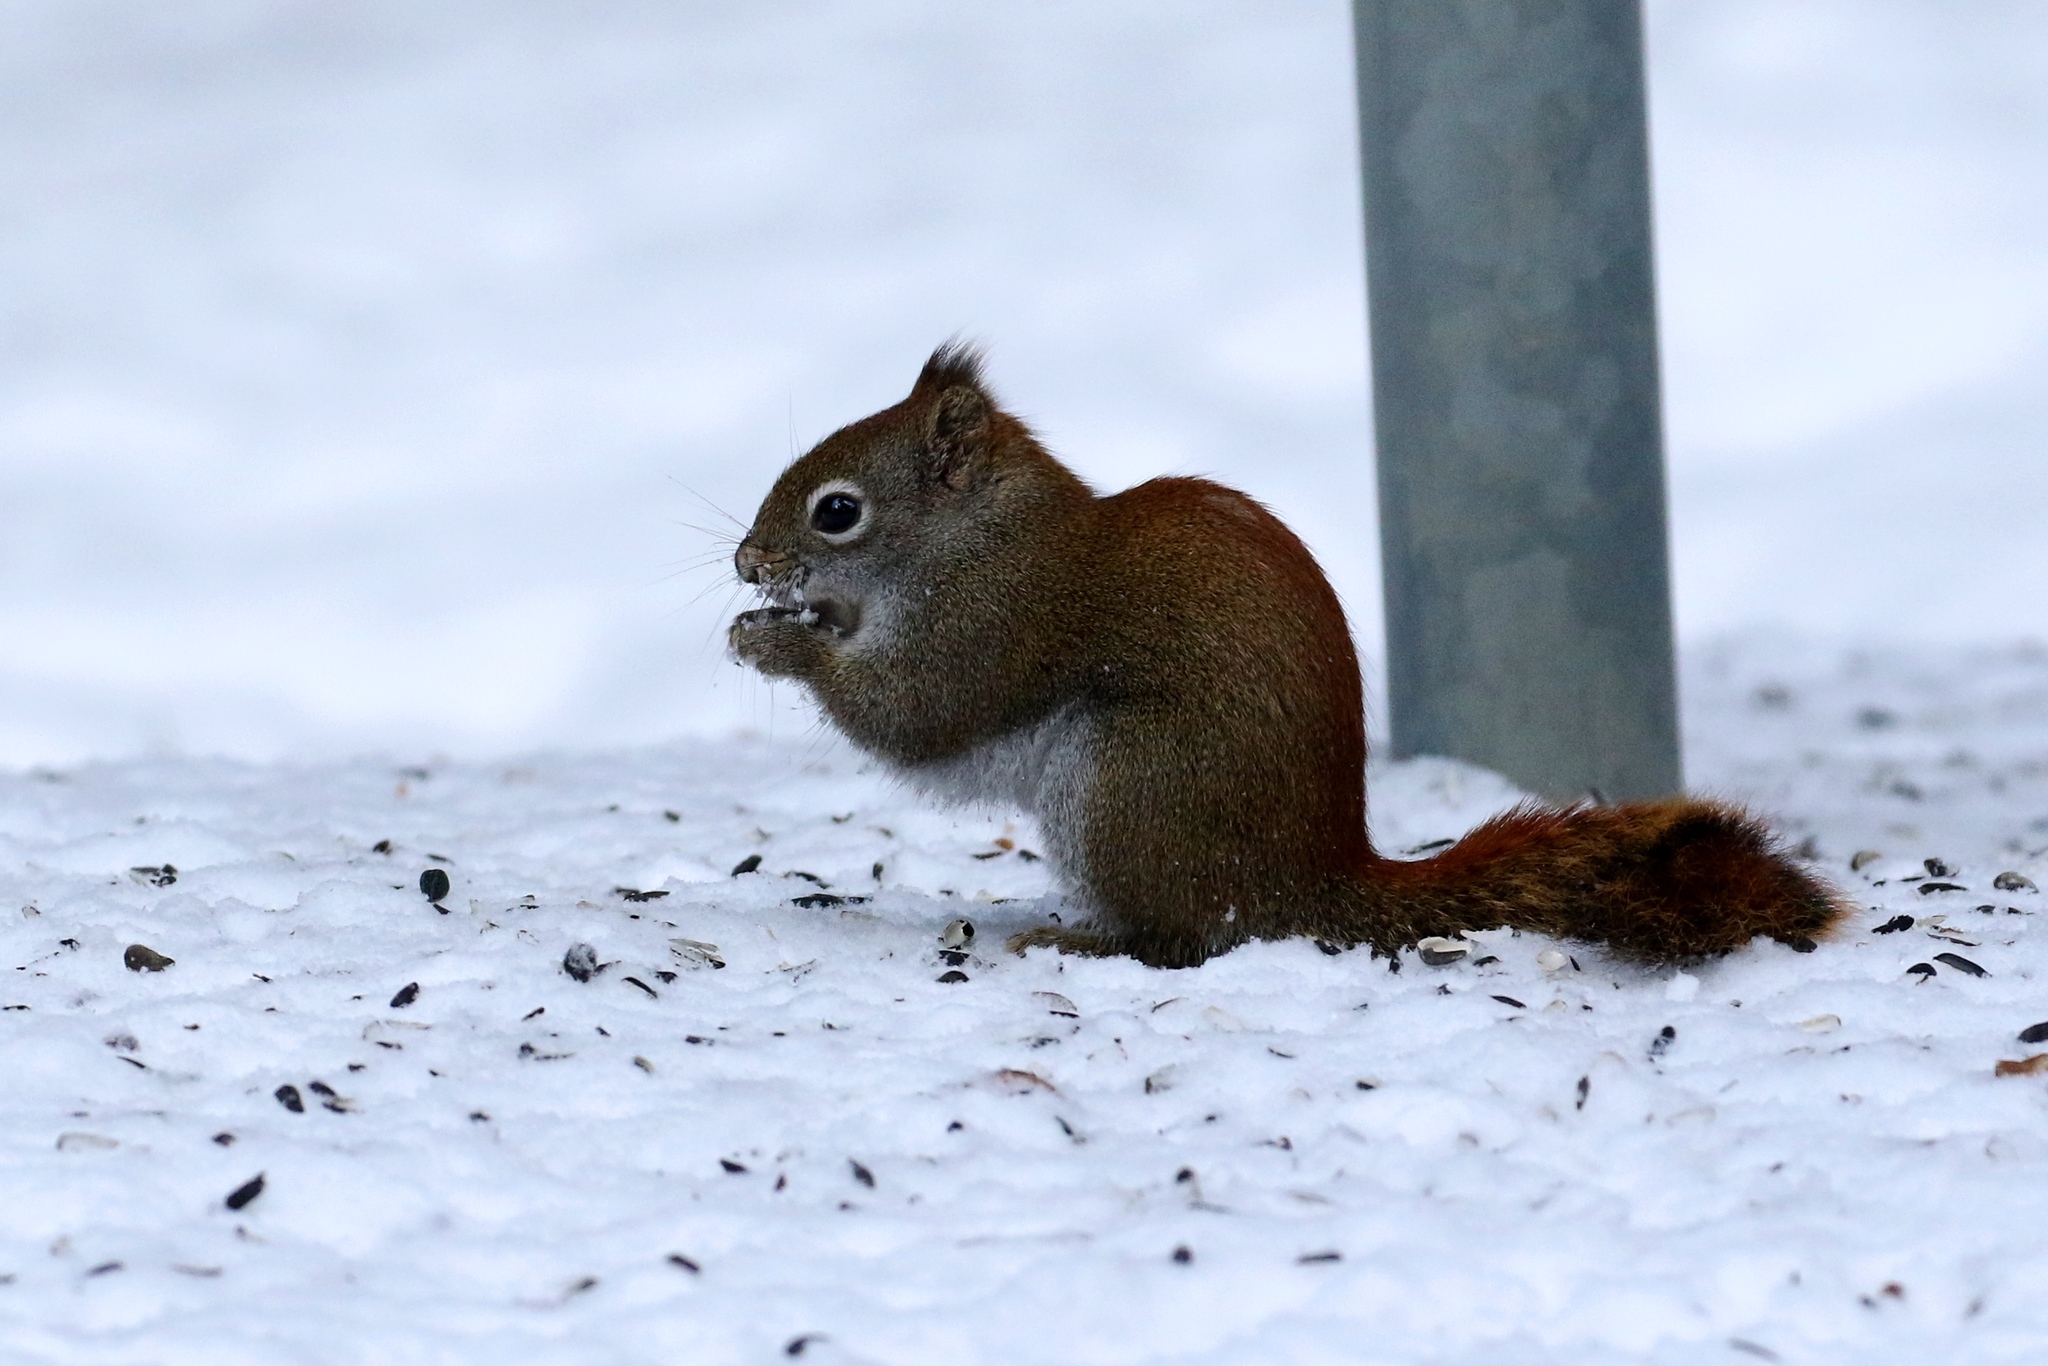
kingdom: Animalia
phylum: Chordata
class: Mammalia
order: Rodentia
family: Sciuridae
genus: Tamiasciurus
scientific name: Tamiasciurus hudsonicus
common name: Red squirrel
